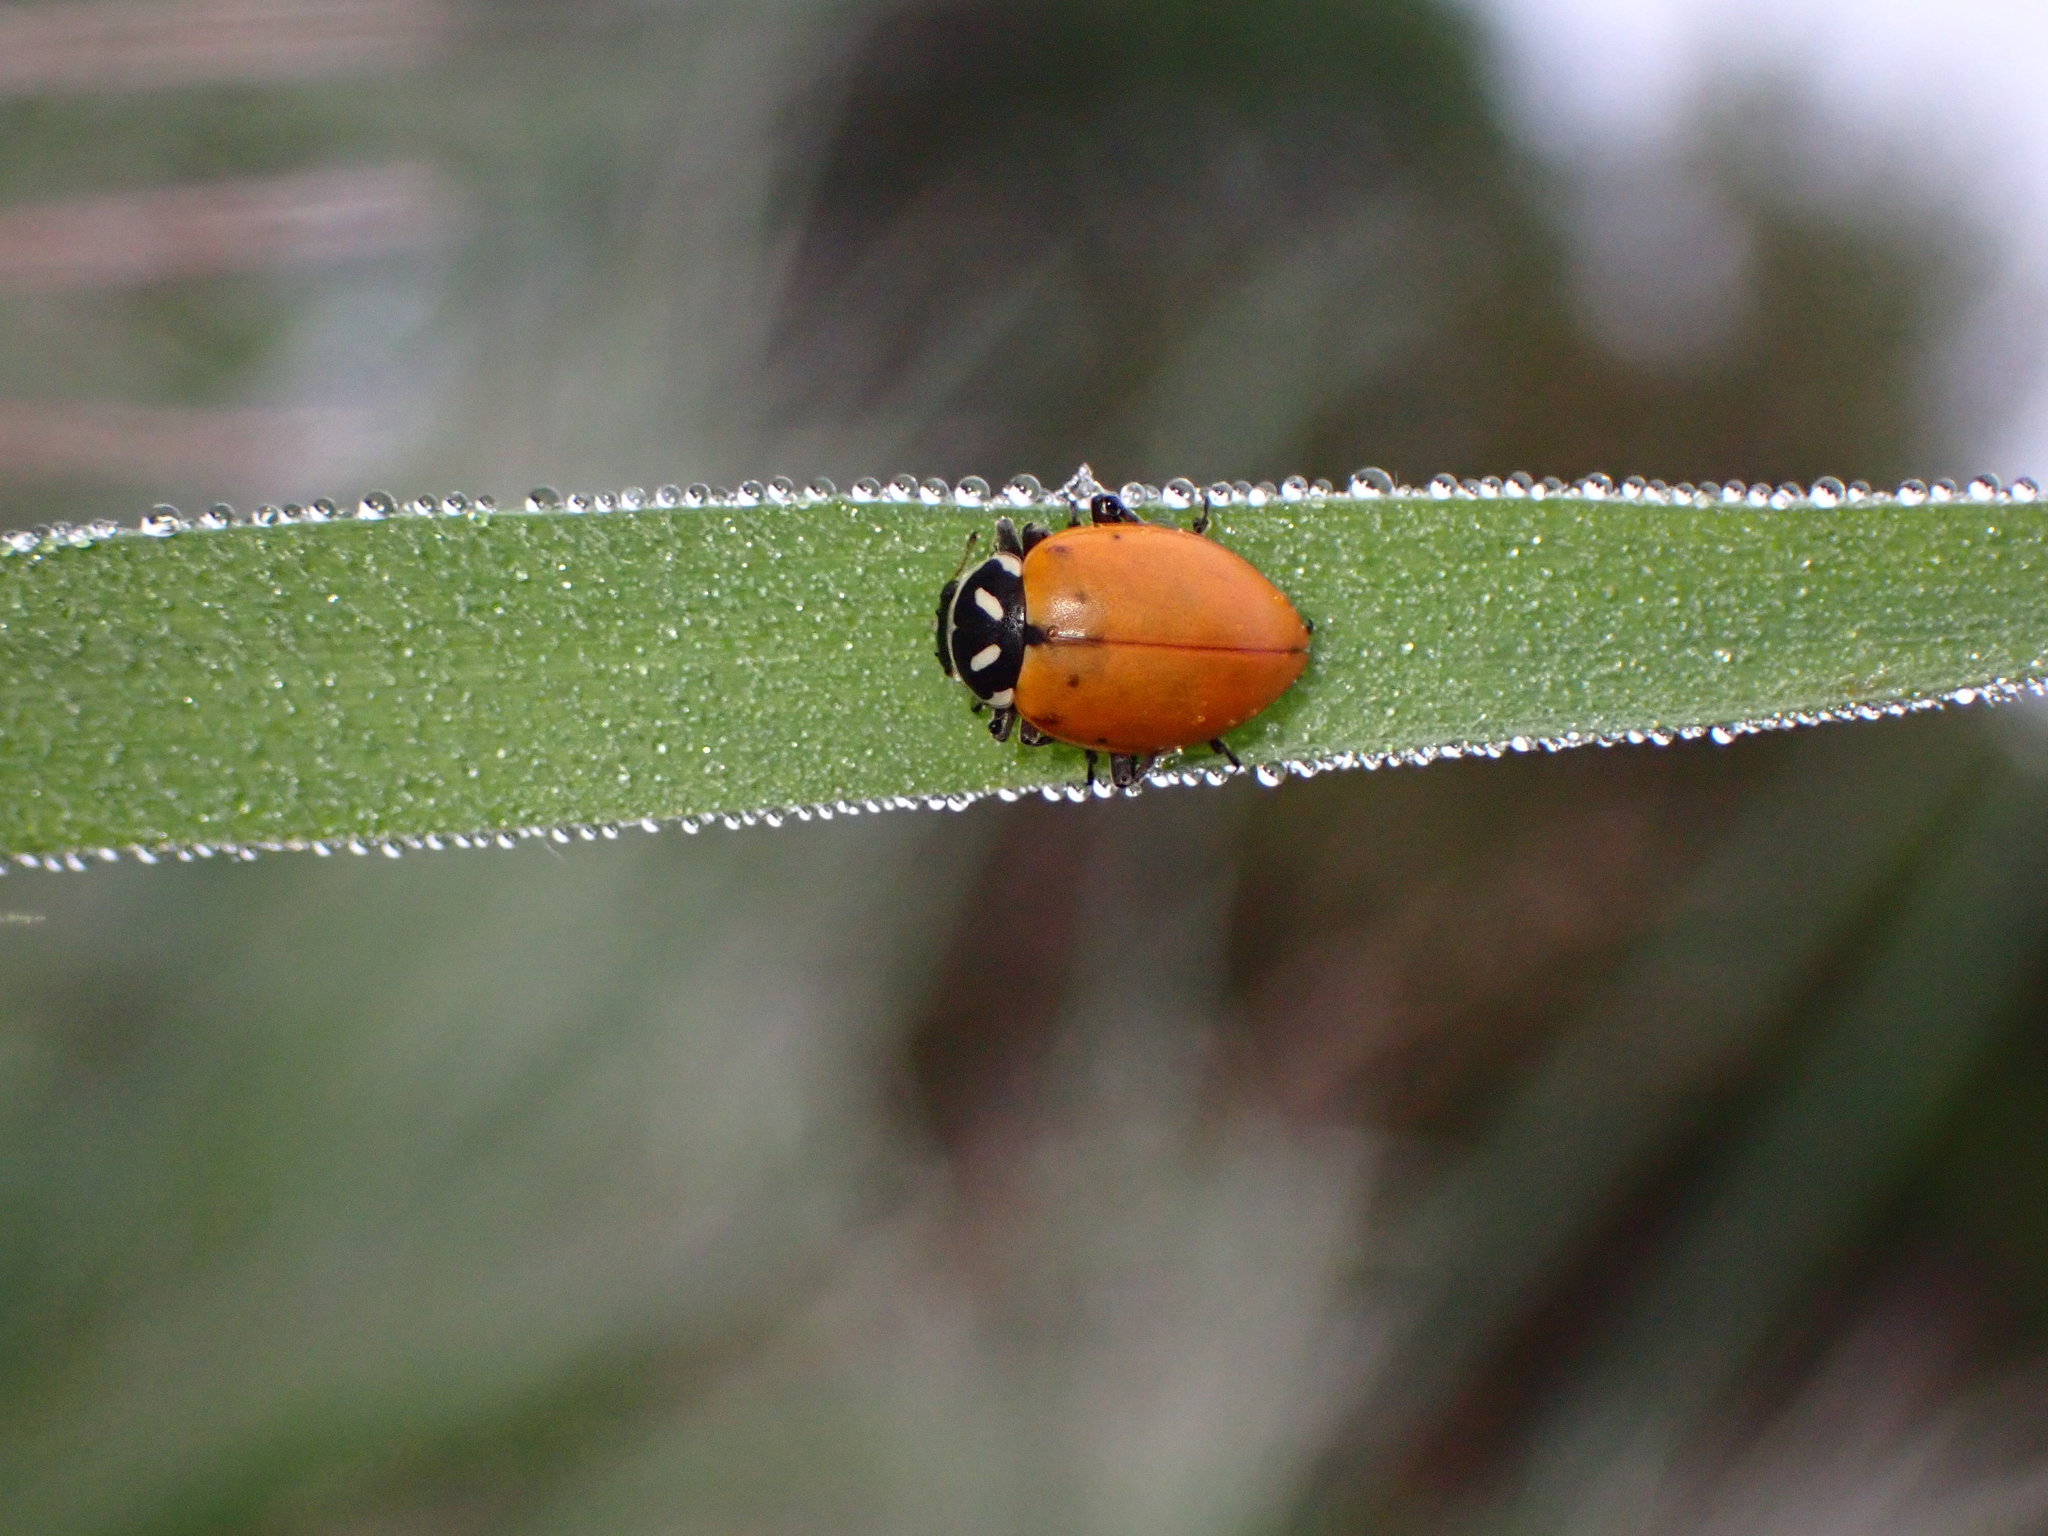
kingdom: Animalia
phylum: Arthropoda
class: Insecta
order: Coleoptera
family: Coccinellidae
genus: Hippodamia
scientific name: Hippodamia convergens
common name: Convergent lady beetle
